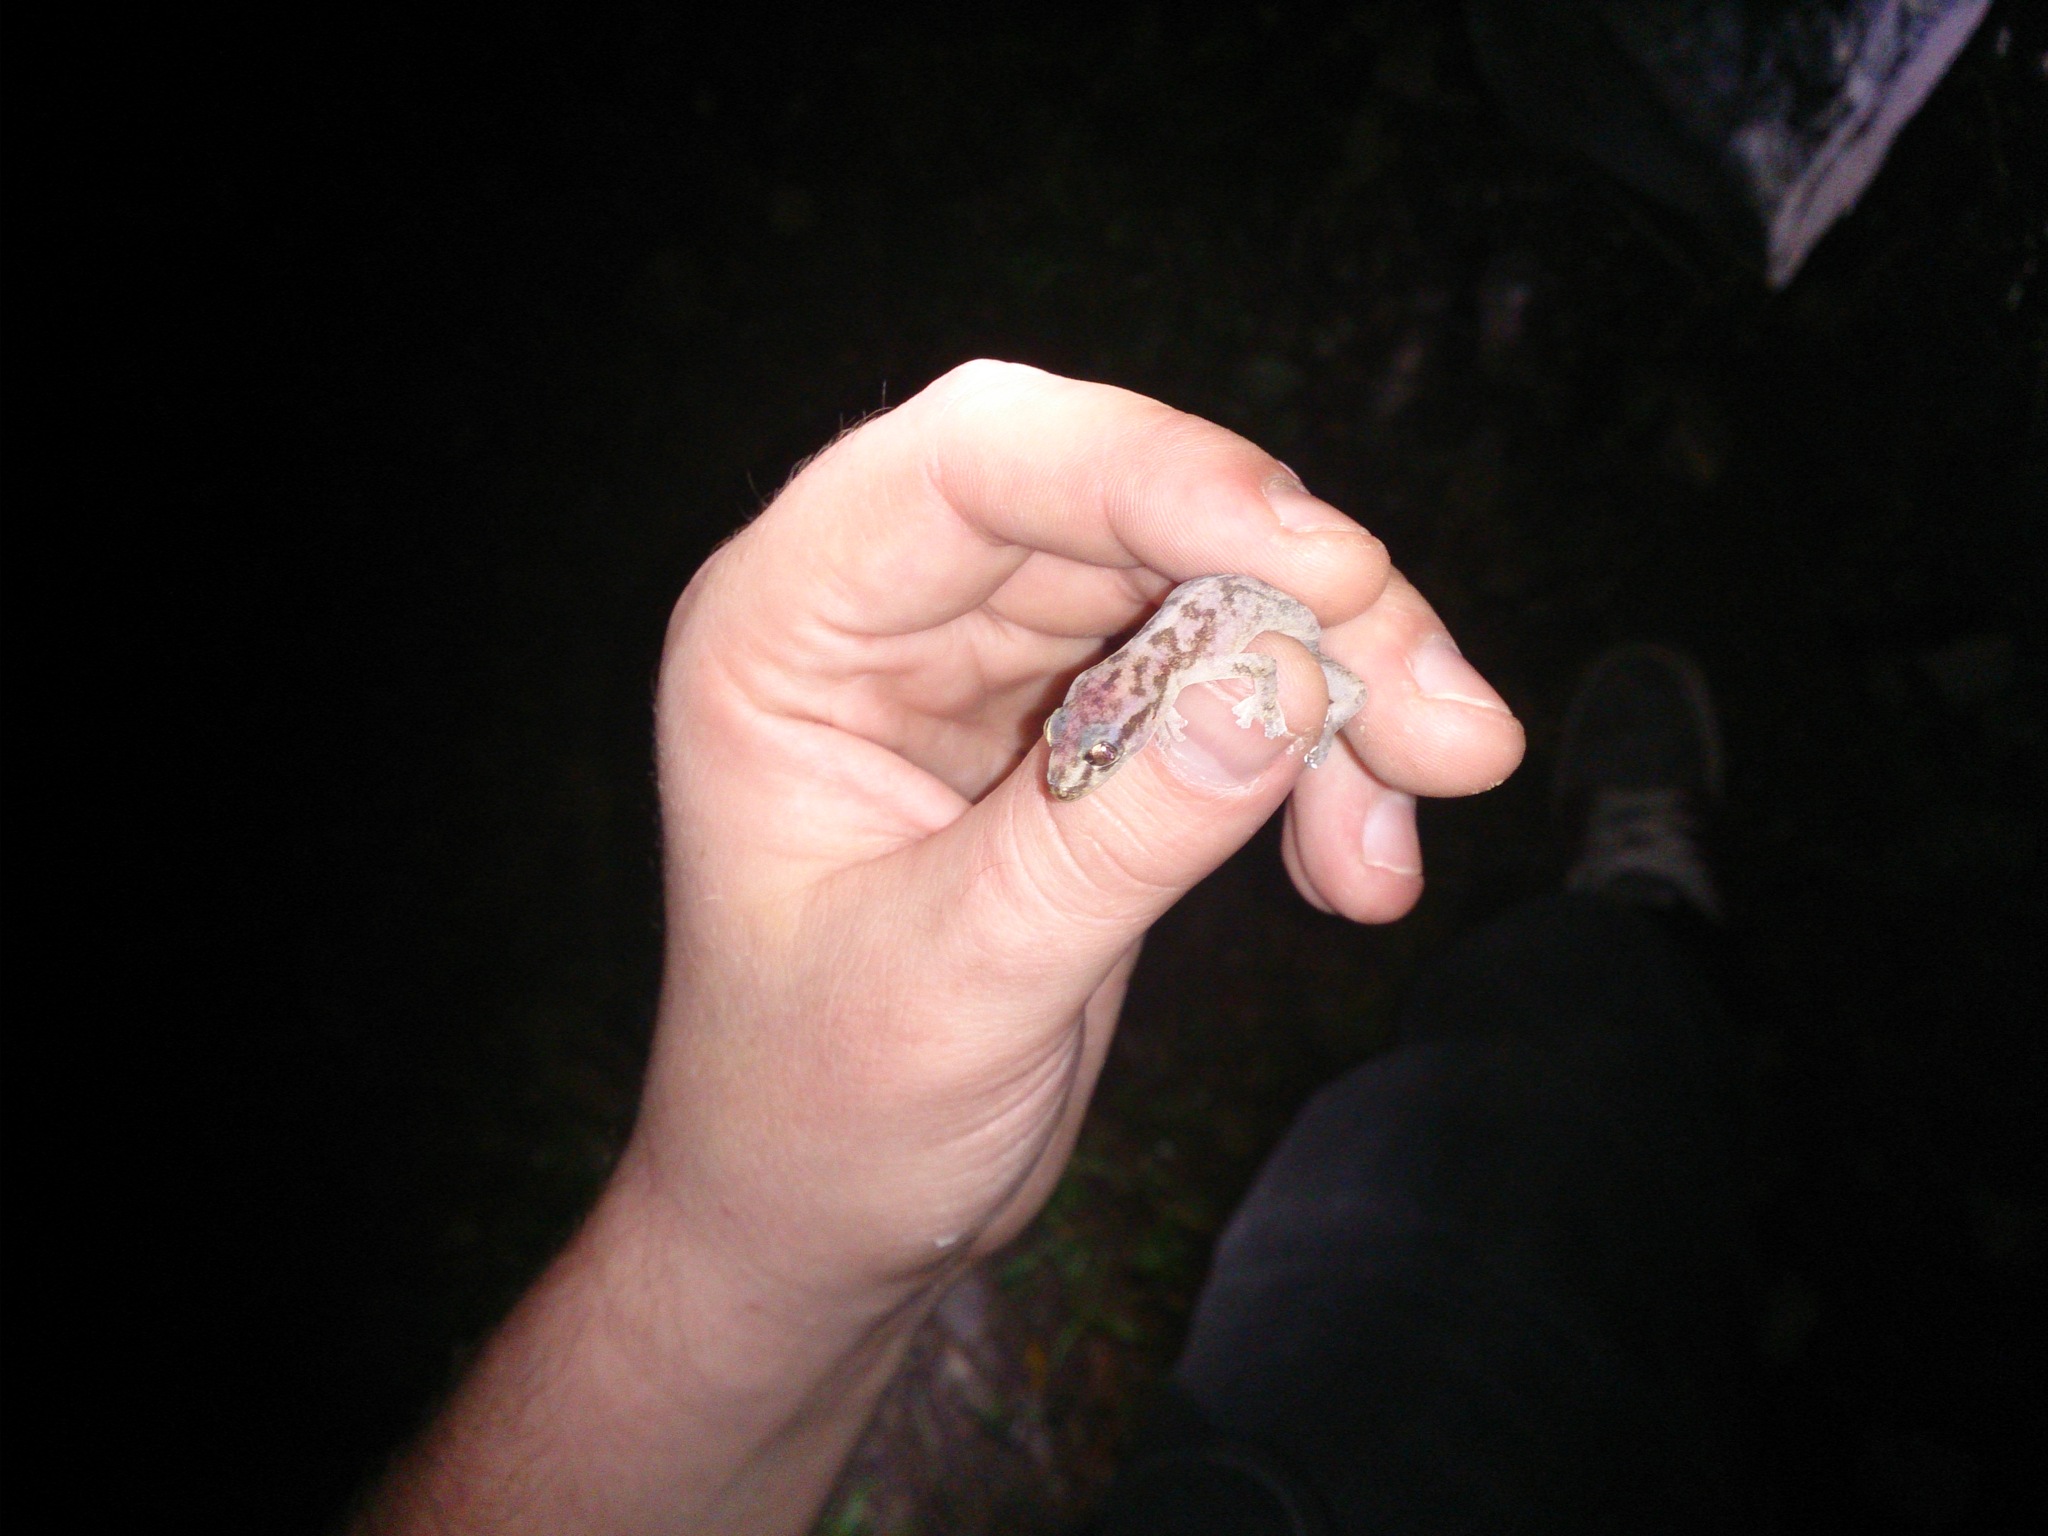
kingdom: Animalia
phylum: Chordata
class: Squamata
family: Gekkonidae
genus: Afroedura
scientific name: Afroedura pondolia
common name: Pondo flat gecko
